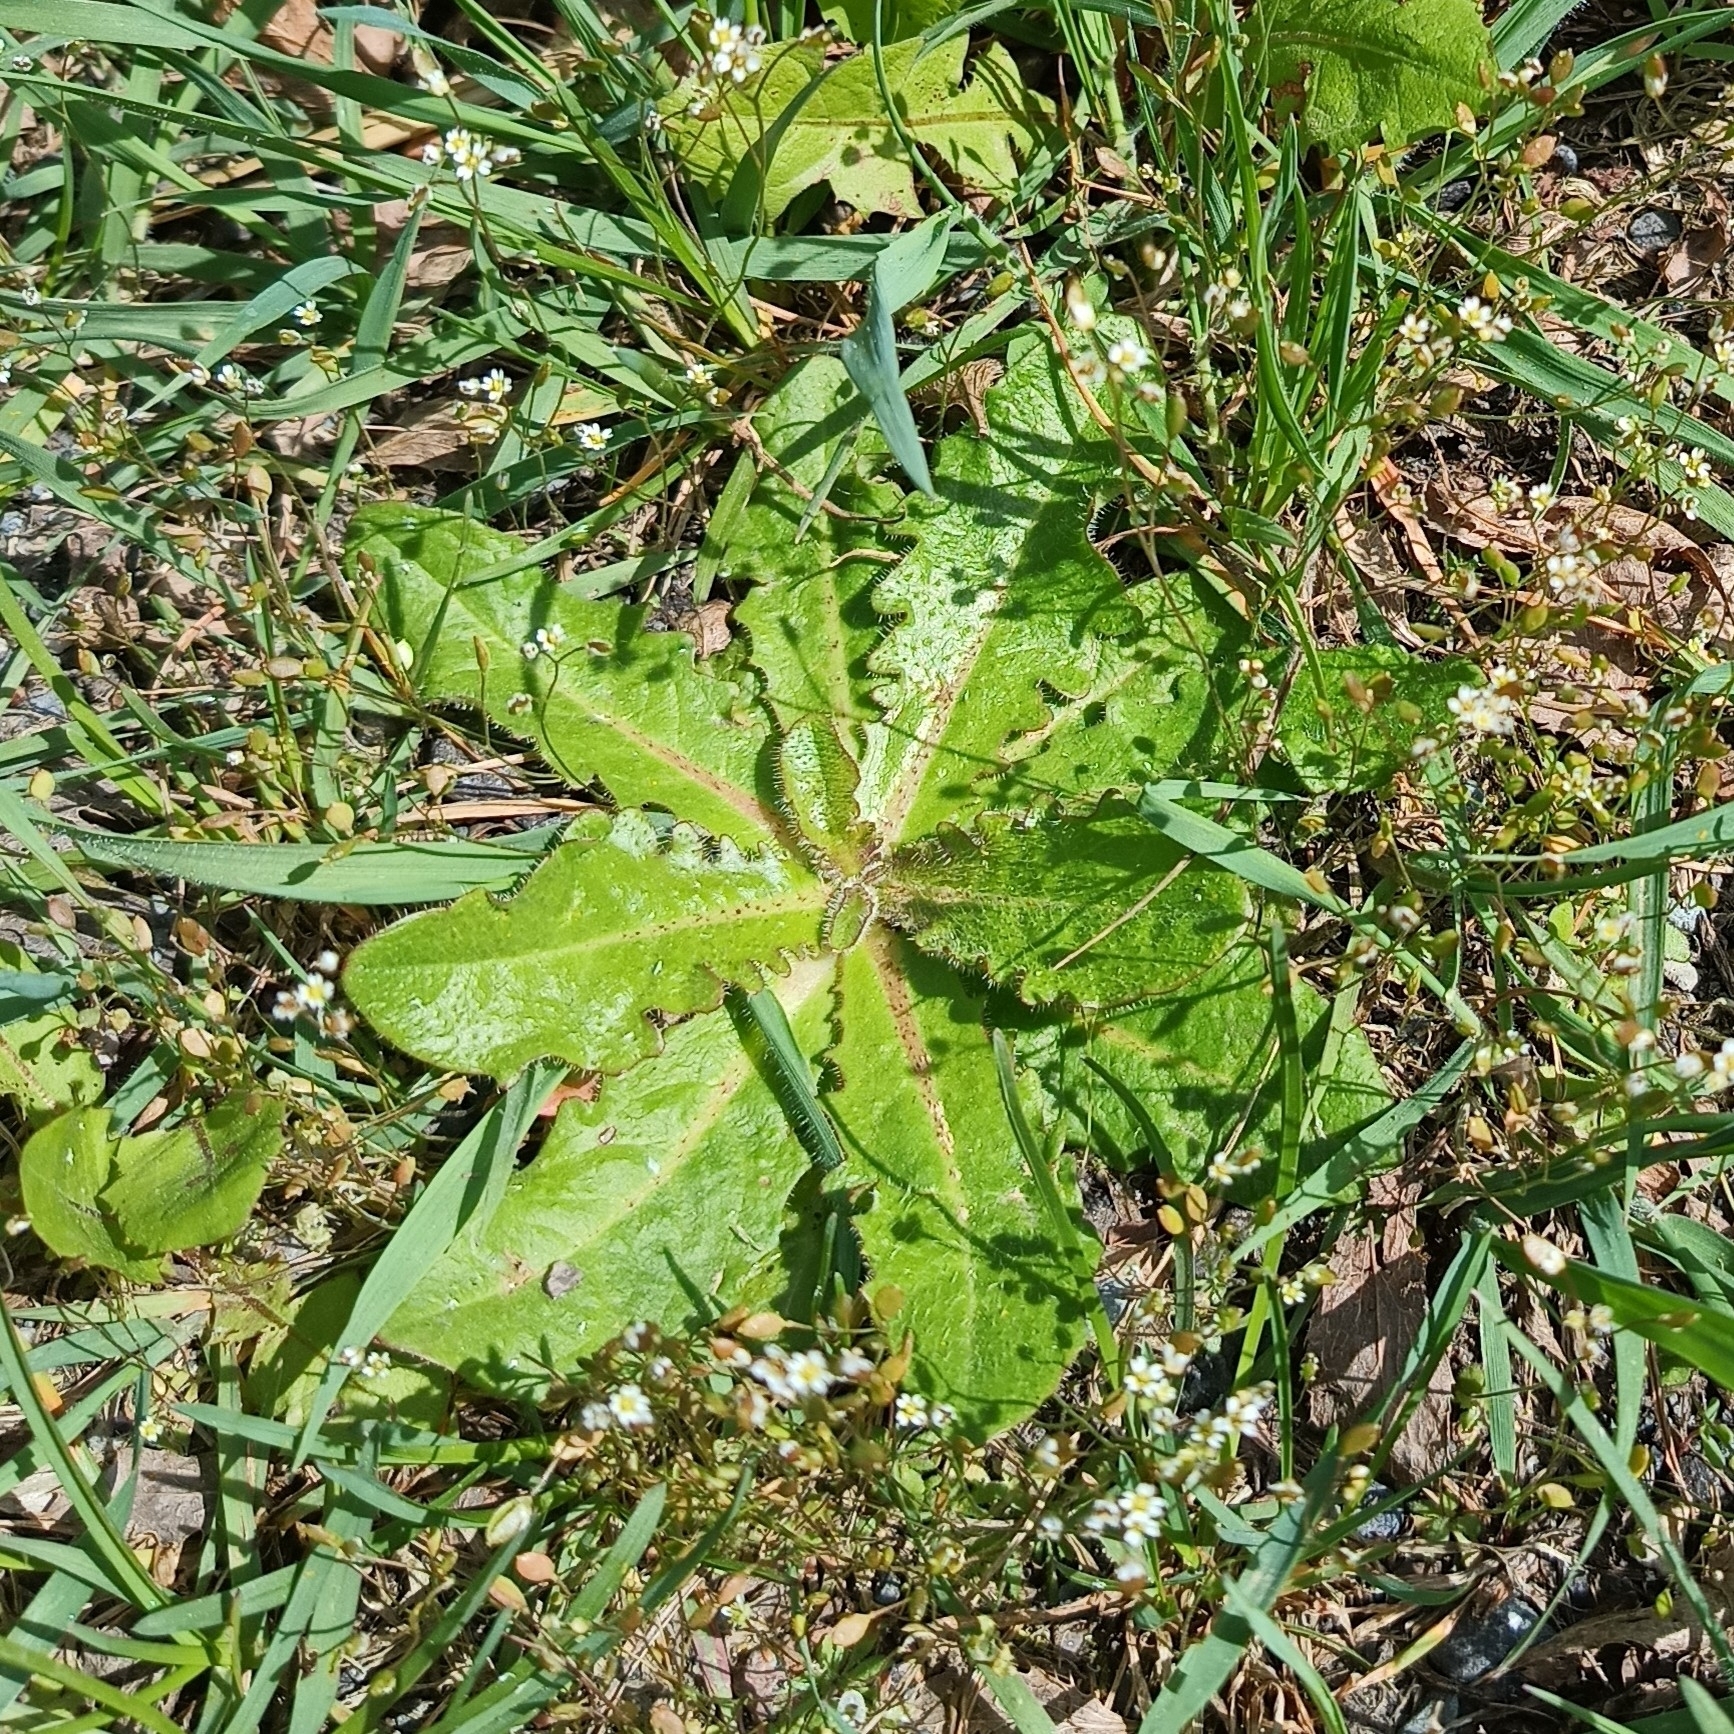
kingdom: Plantae
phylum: Tracheophyta
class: Magnoliopsida
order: Asterales
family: Asteraceae
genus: Hypochaeris
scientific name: Hypochaeris radicata
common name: Flatweed
